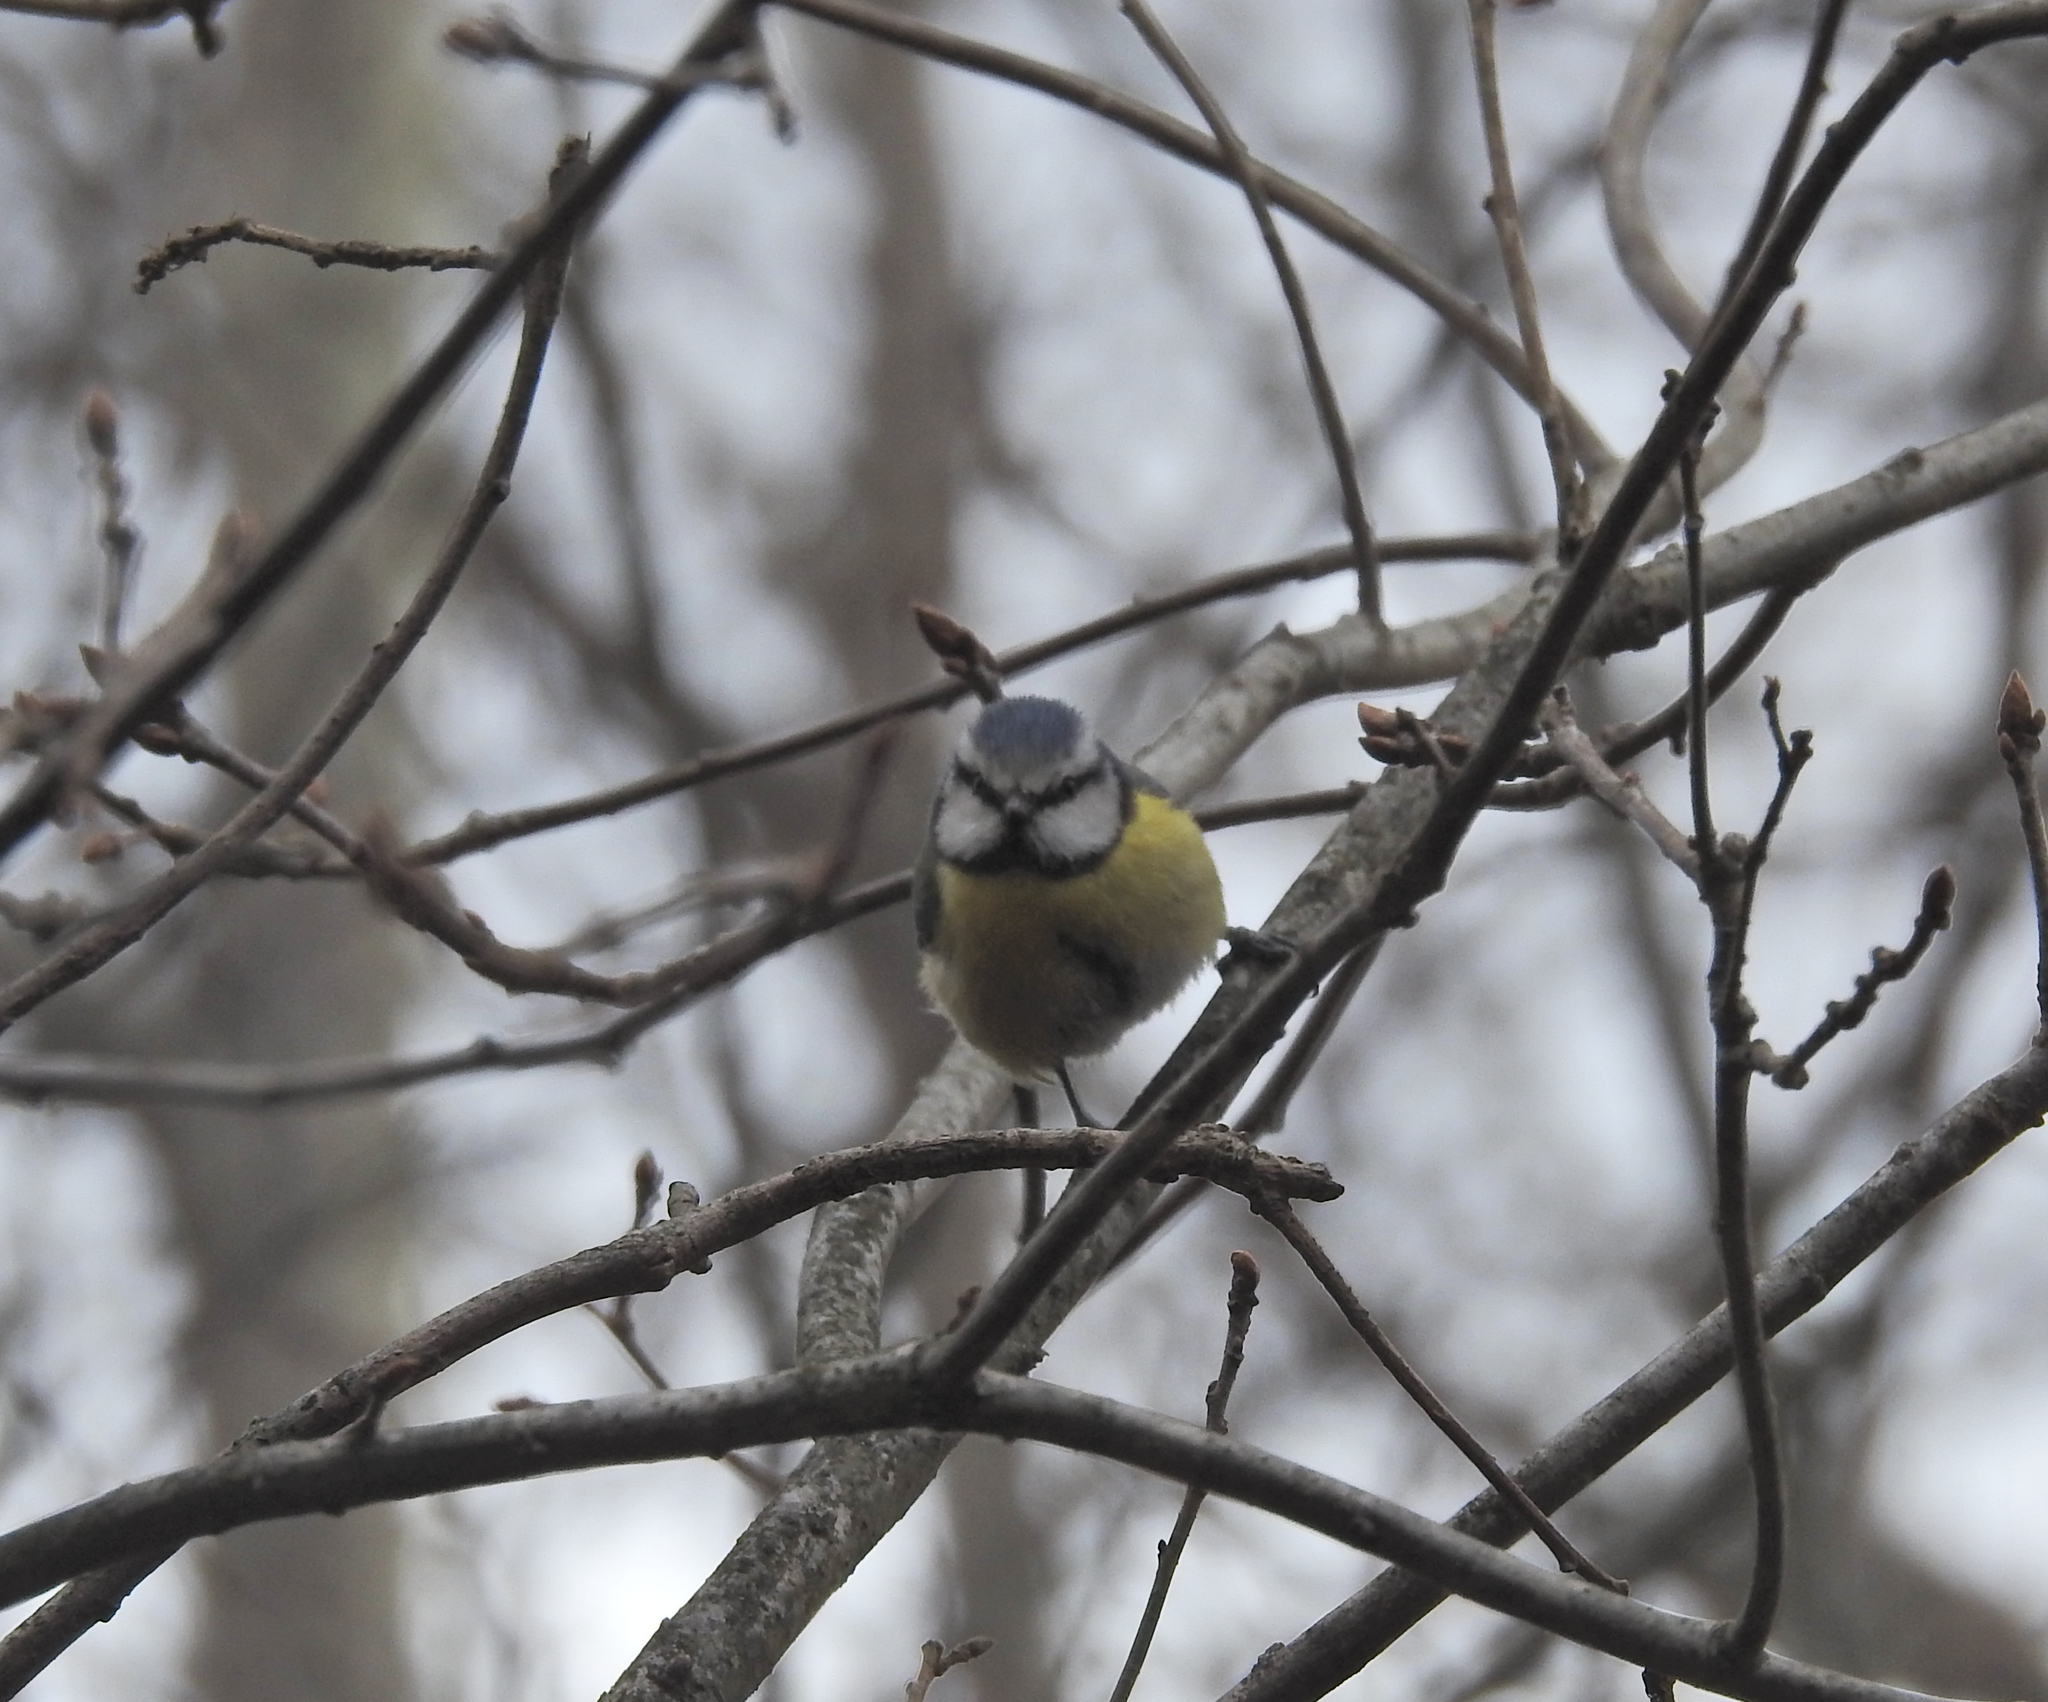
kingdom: Animalia
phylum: Chordata
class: Aves
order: Passeriformes
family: Paridae
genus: Cyanistes
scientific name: Cyanistes caeruleus
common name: Eurasian blue tit
